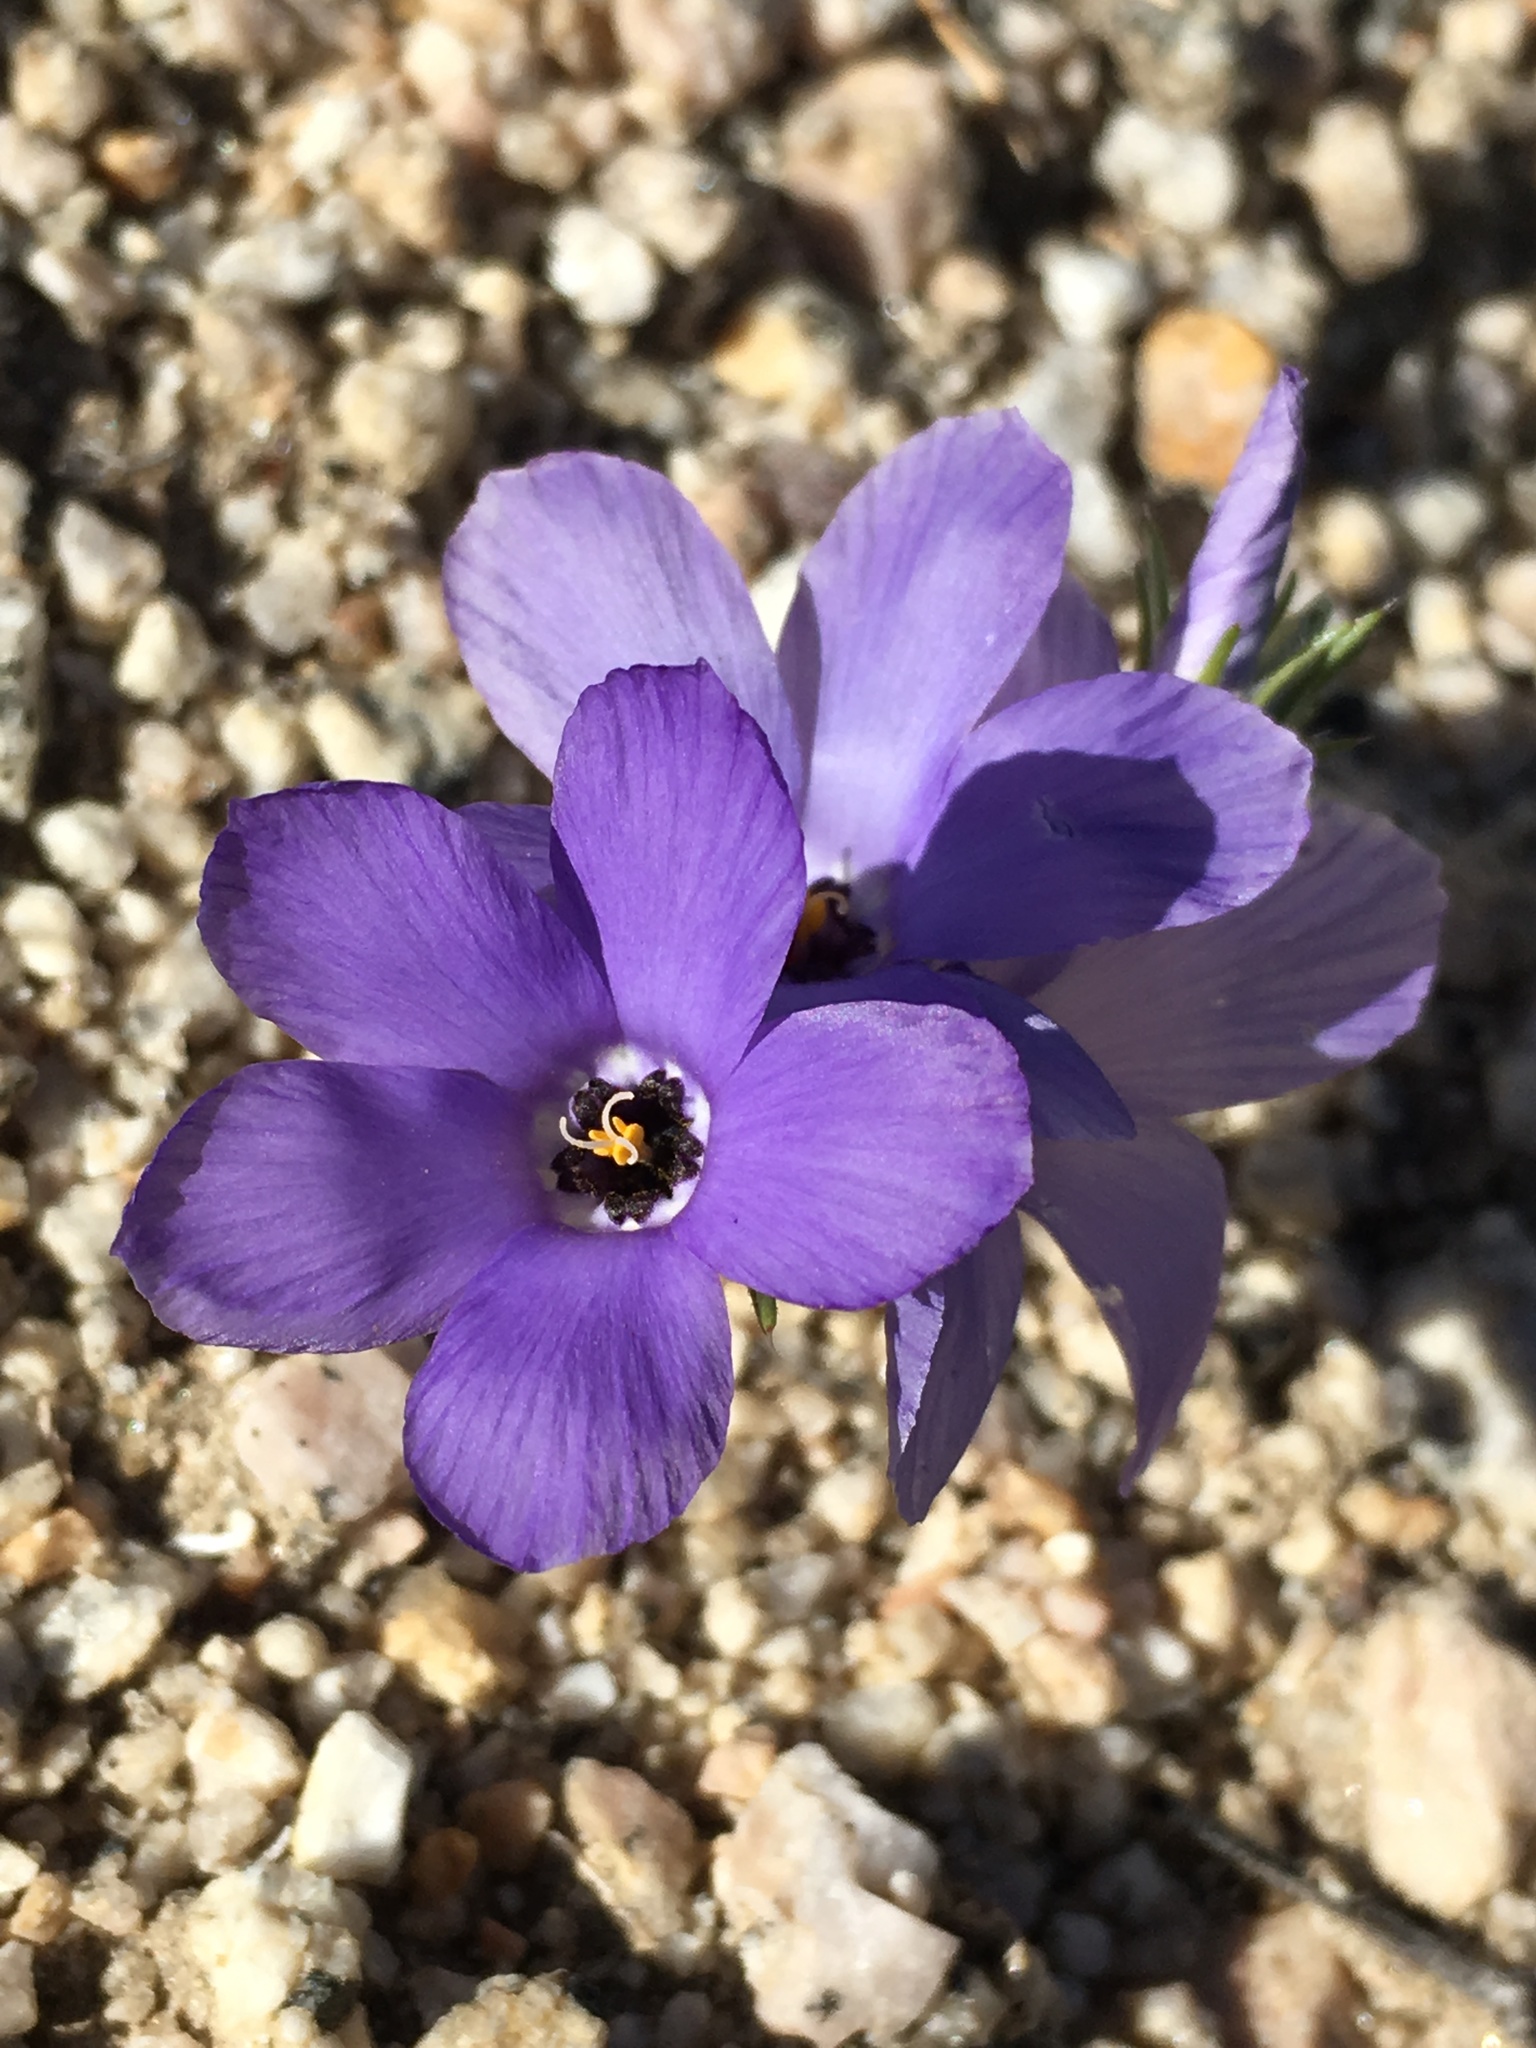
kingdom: Plantae
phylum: Tracheophyta
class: Magnoliopsida
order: Ericales
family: Polemoniaceae
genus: Linanthus
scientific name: Linanthus parryae
